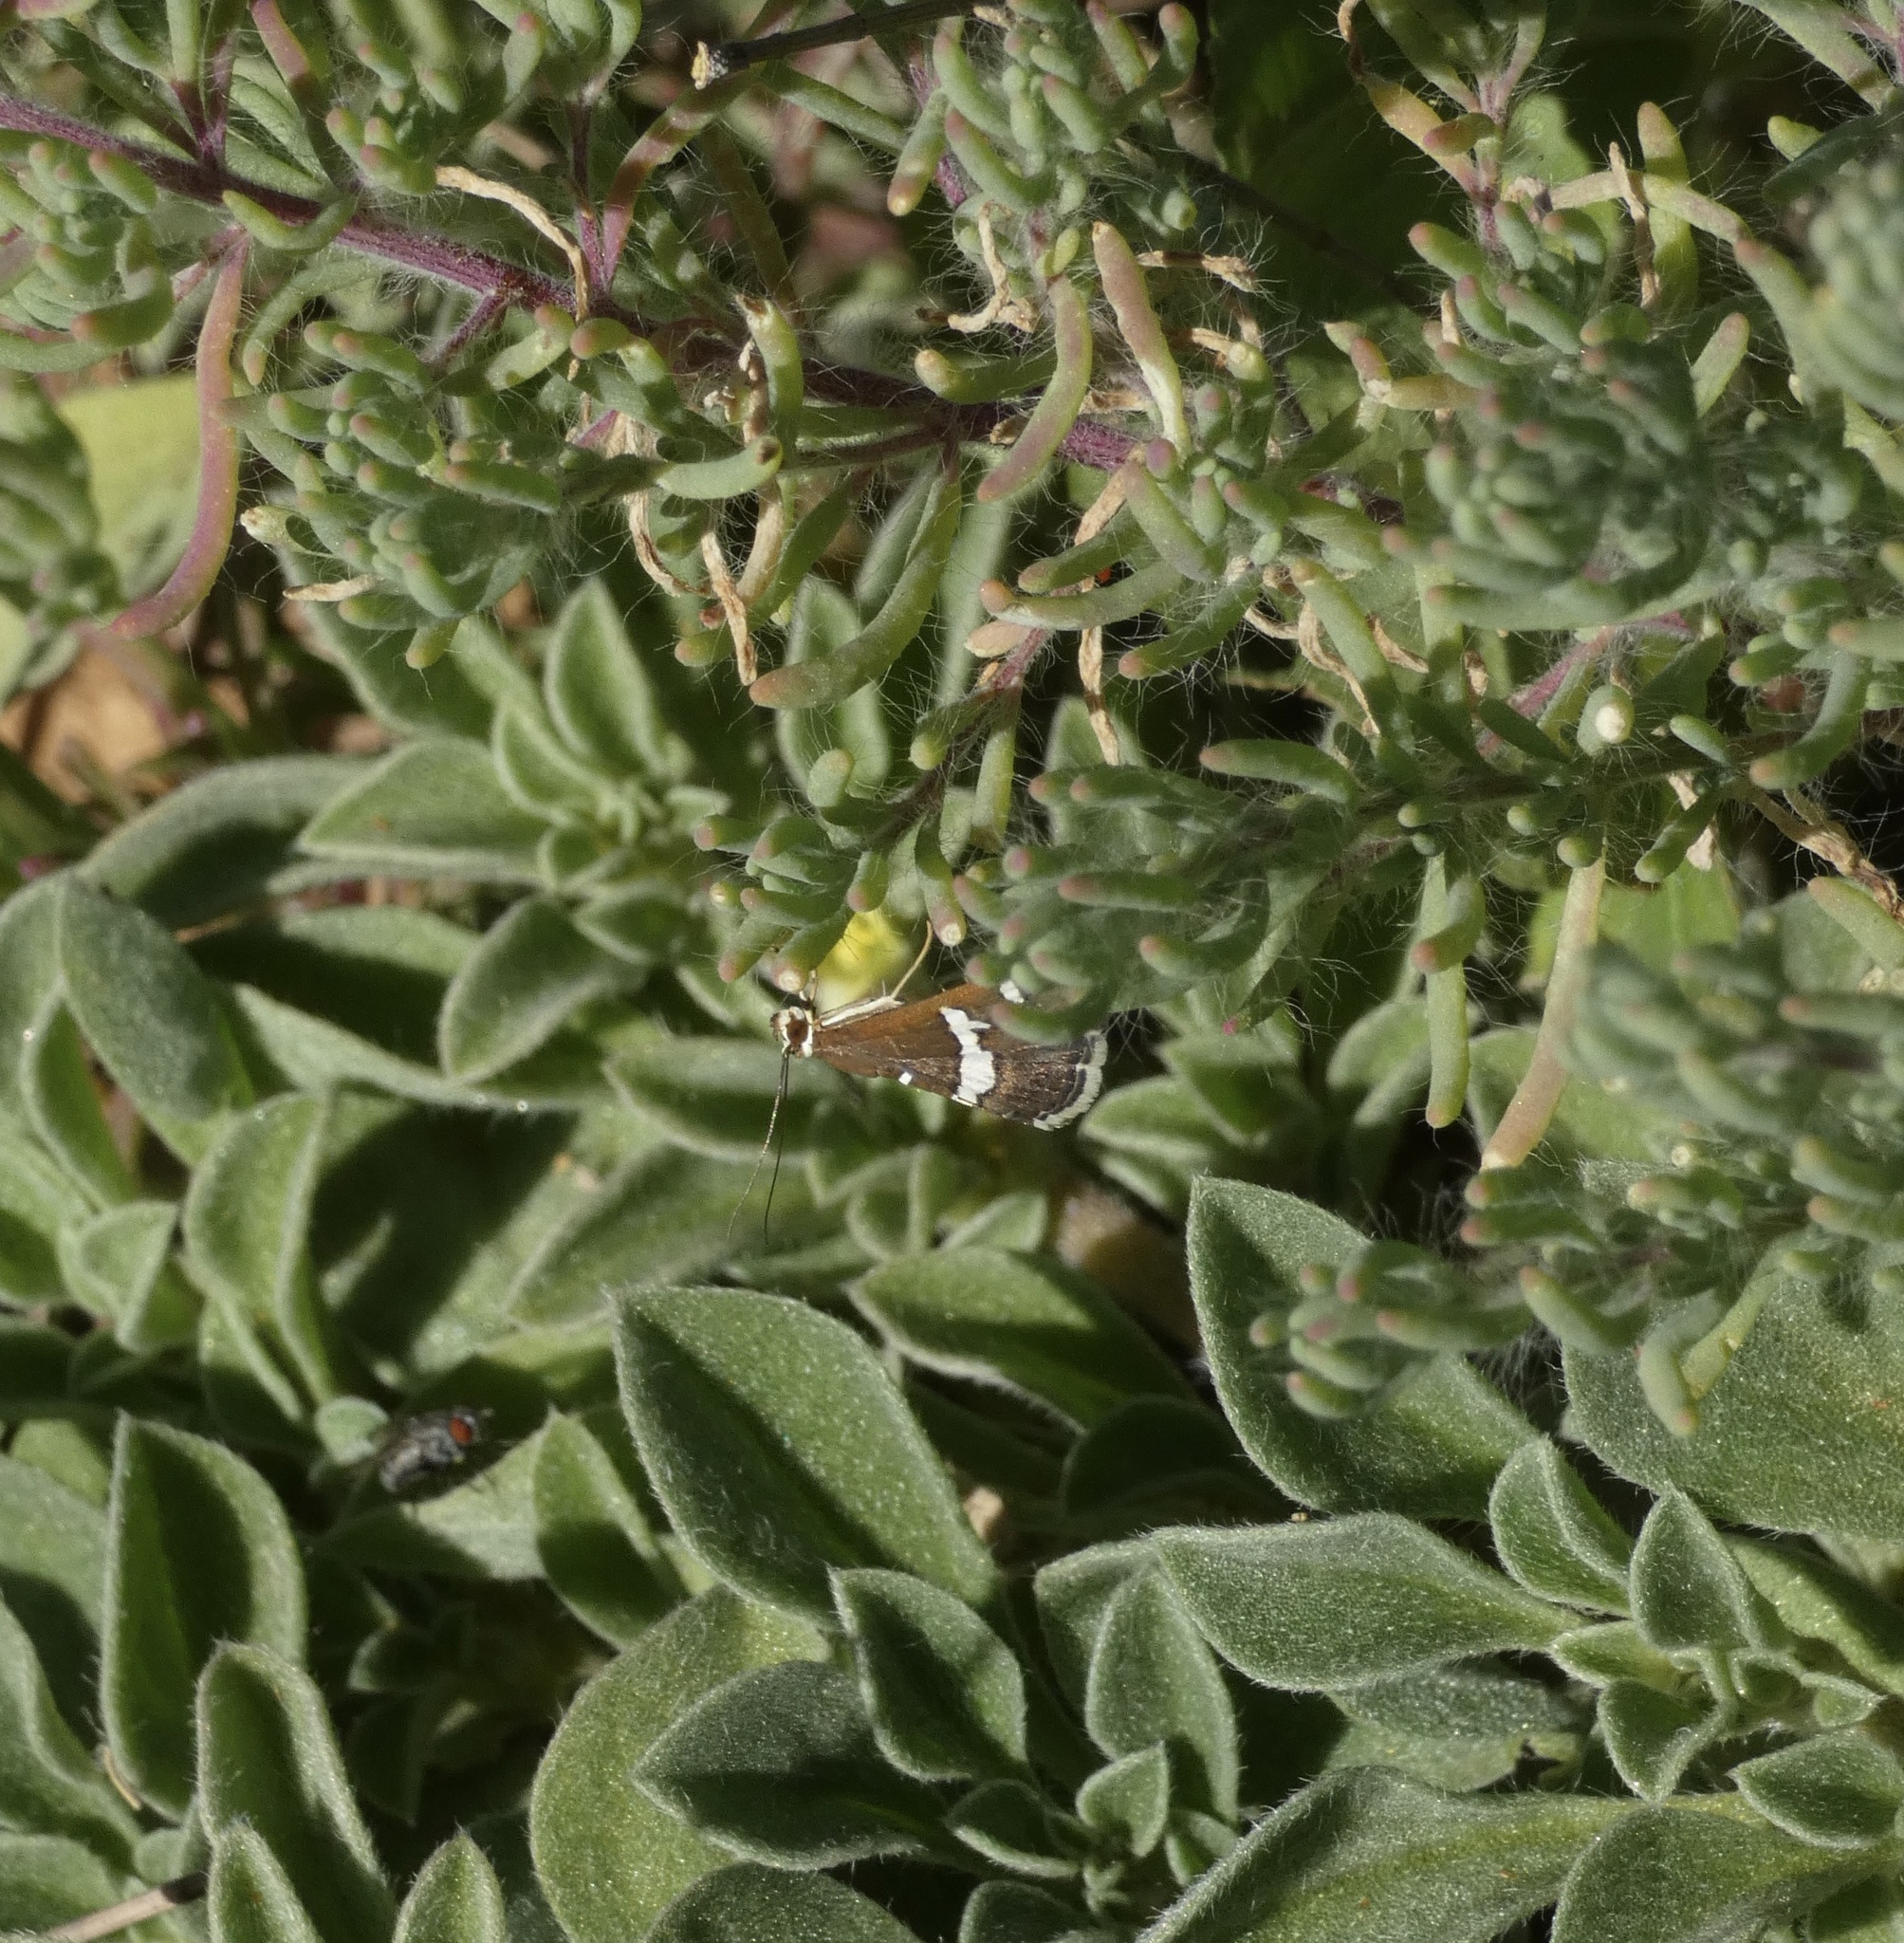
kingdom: Animalia
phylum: Arthropoda
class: Insecta
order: Lepidoptera
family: Crambidae
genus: Spoladea
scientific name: Spoladea recurvalis
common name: Beet webworm moth
